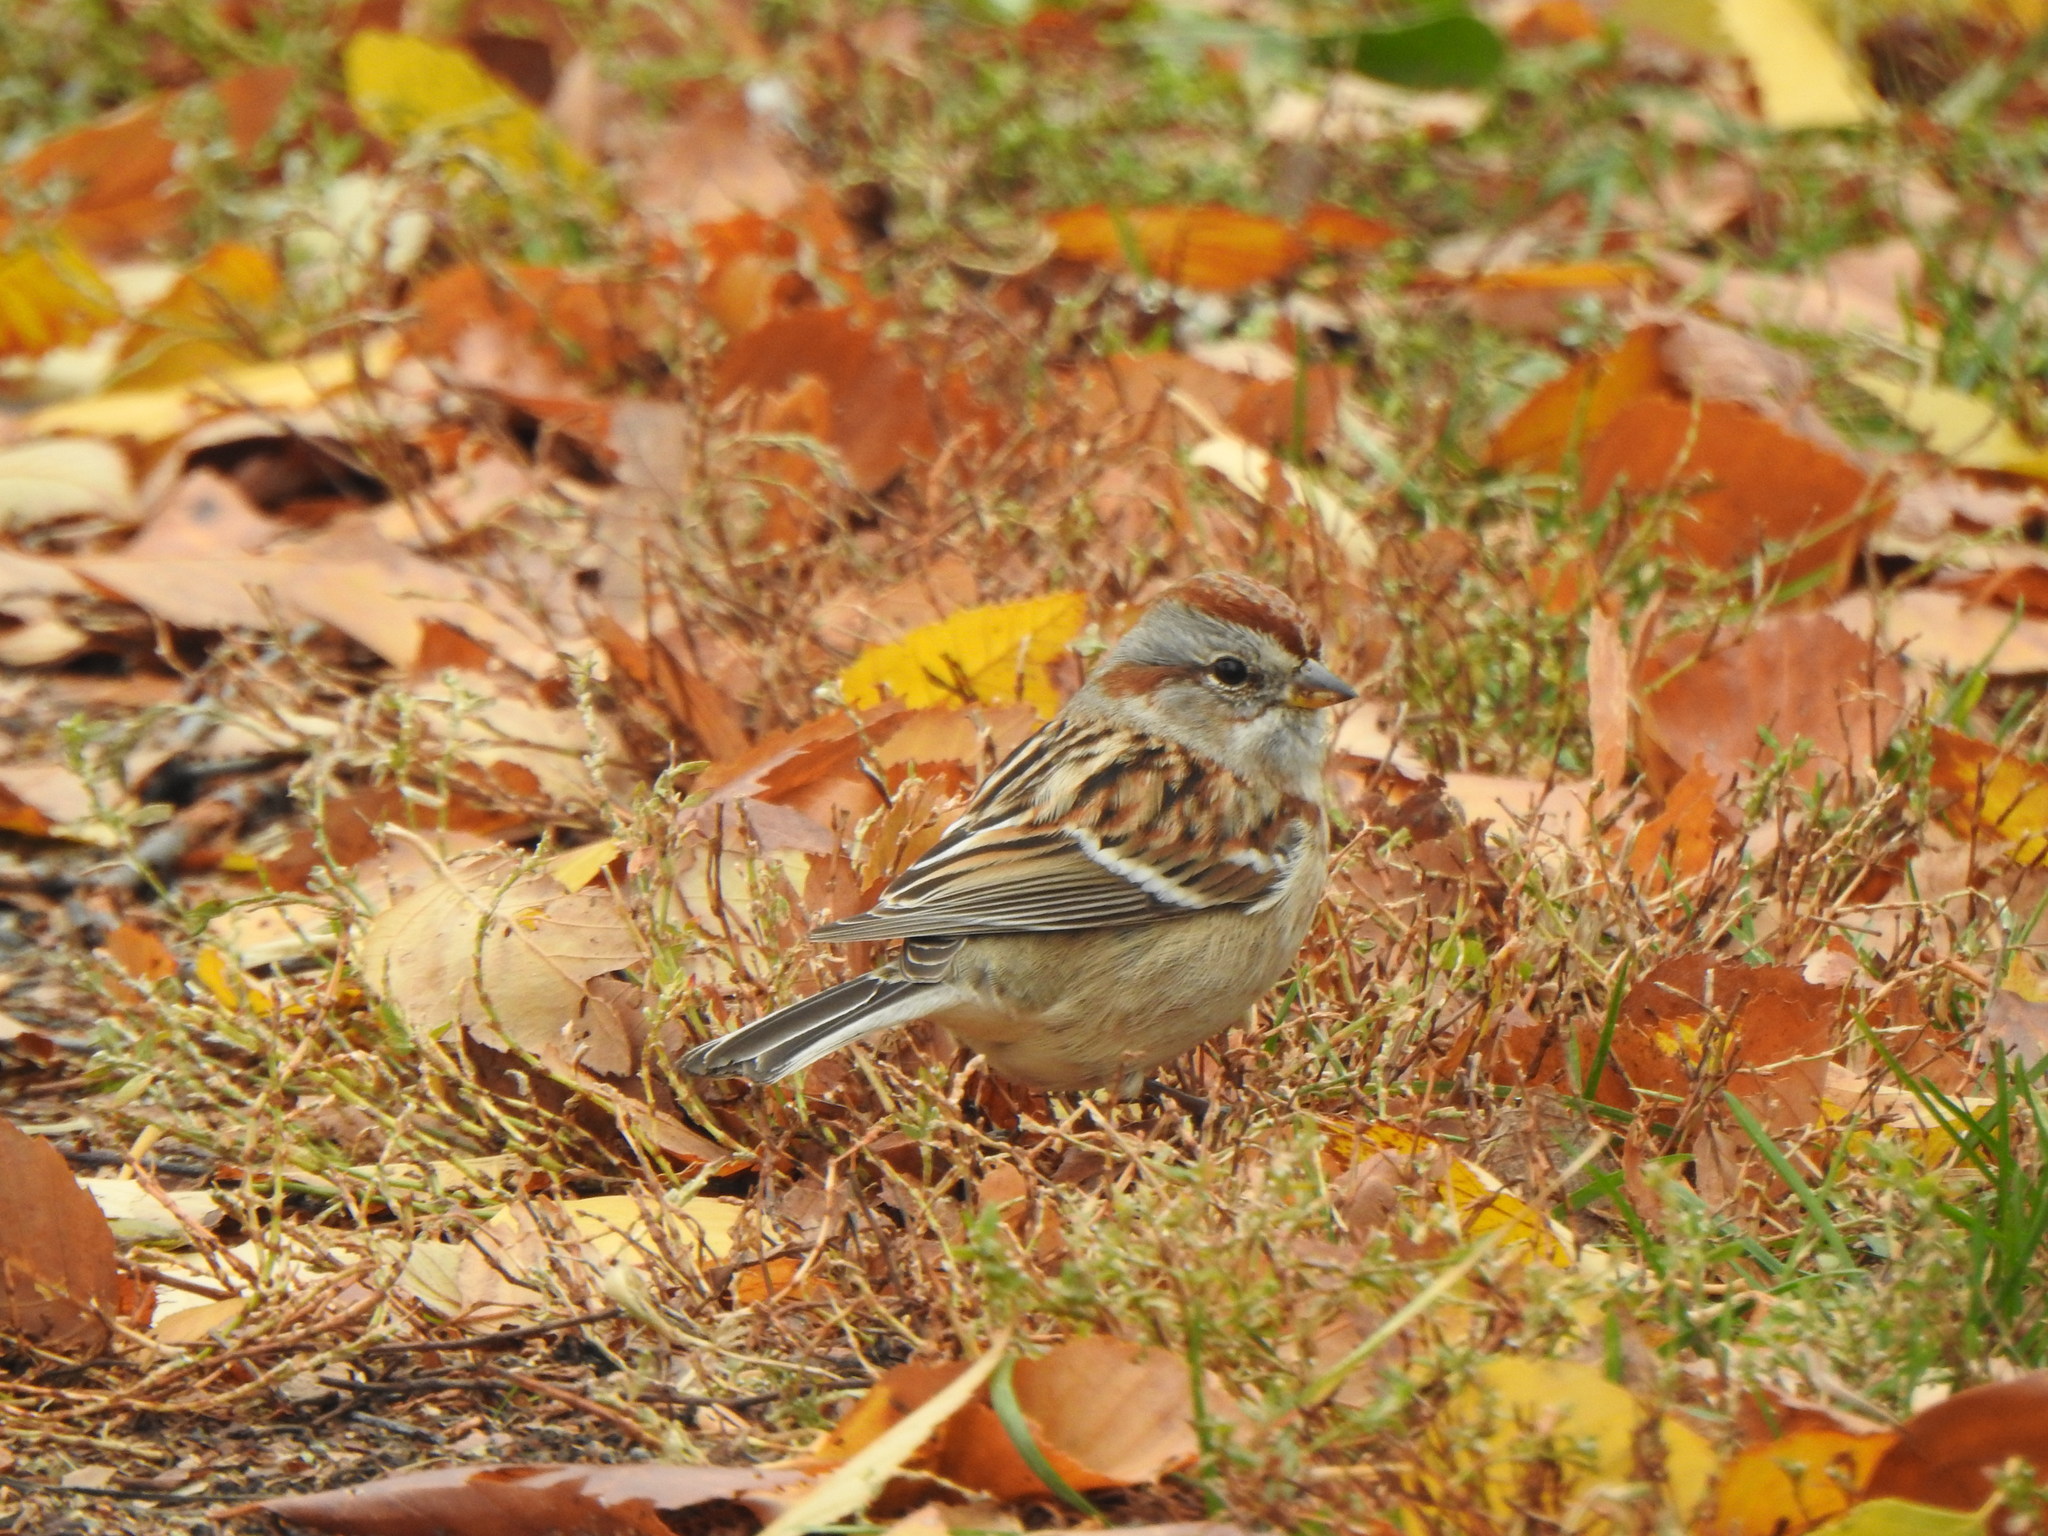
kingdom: Animalia
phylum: Chordata
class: Aves
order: Passeriformes
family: Passerellidae
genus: Spizelloides
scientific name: Spizelloides arborea
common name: American tree sparrow
